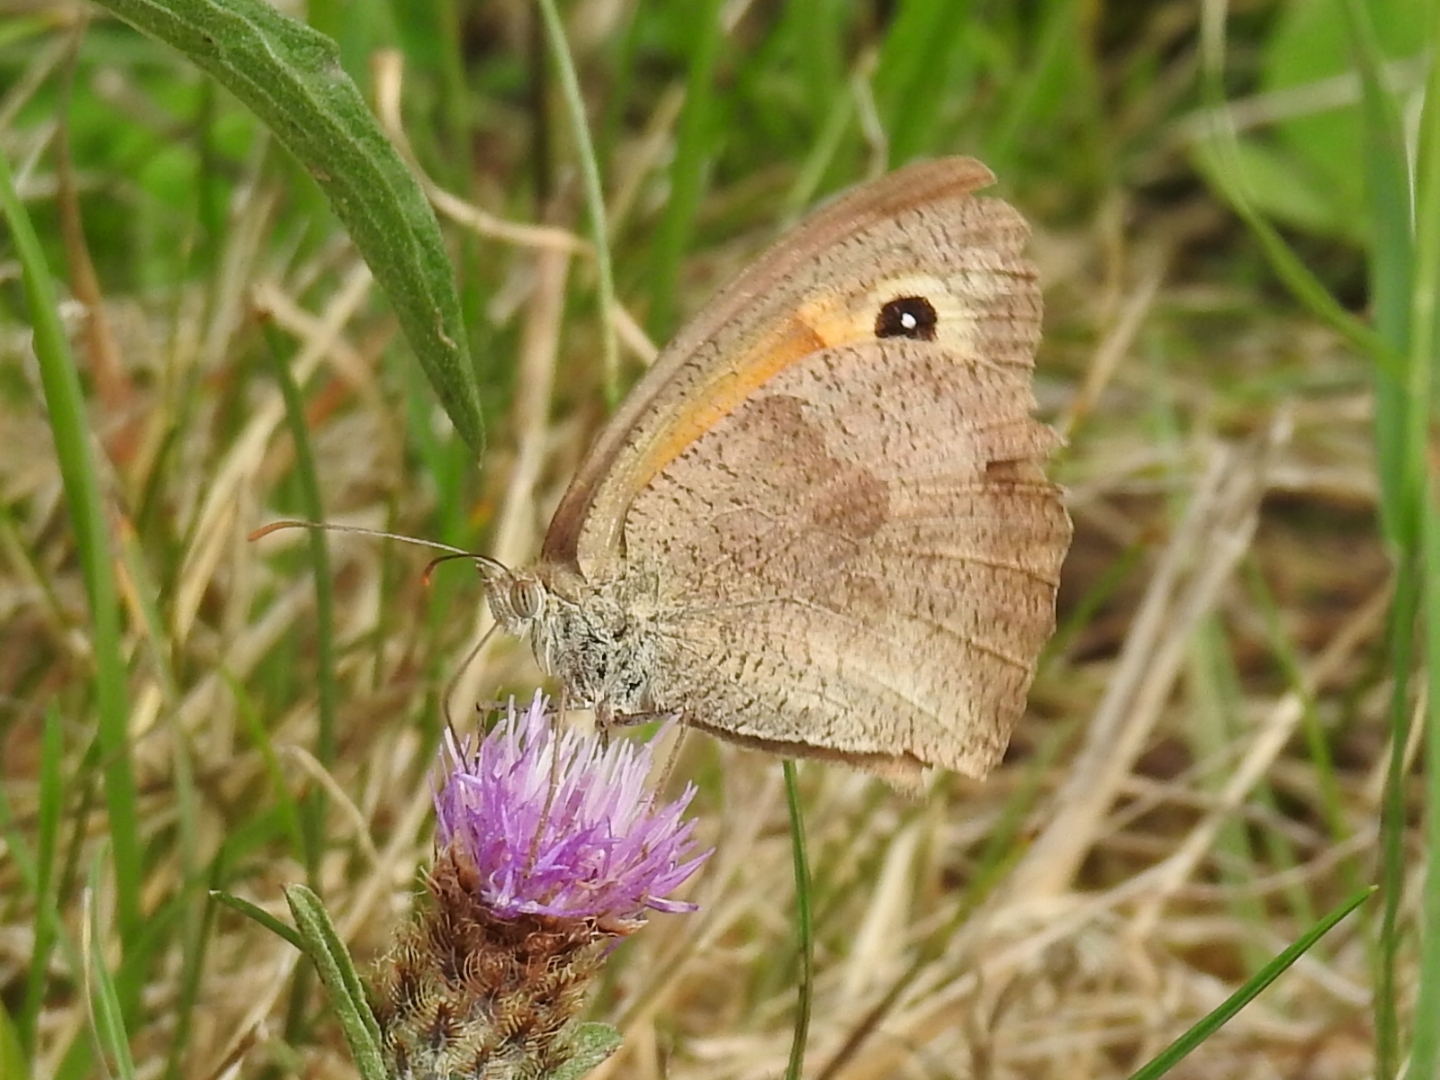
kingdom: Animalia
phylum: Arthropoda
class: Insecta
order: Lepidoptera
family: Nymphalidae
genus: Maniola
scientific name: Maniola jurtina
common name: Meadow brown
